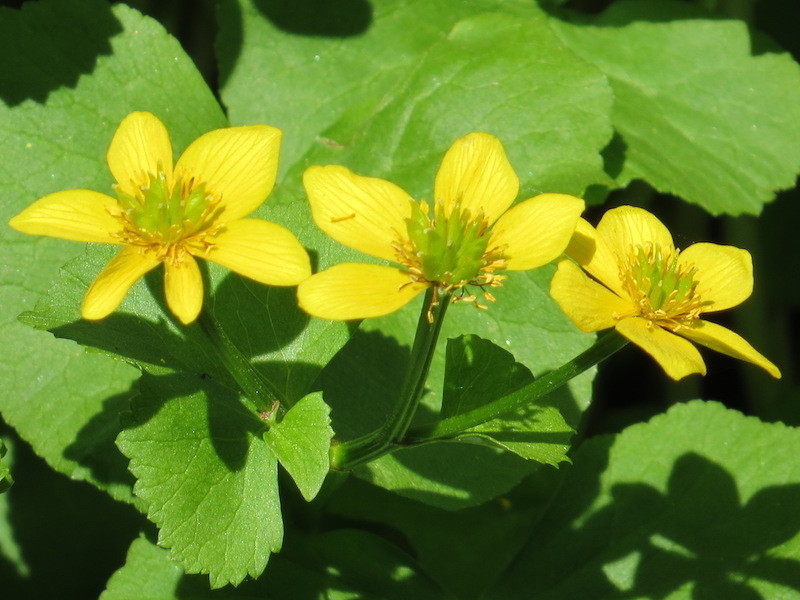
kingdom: Plantae
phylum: Tracheophyta
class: Magnoliopsida
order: Ranunculales
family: Ranunculaceae
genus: Caltha
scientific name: Caltha palustris
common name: Marsh marigold
